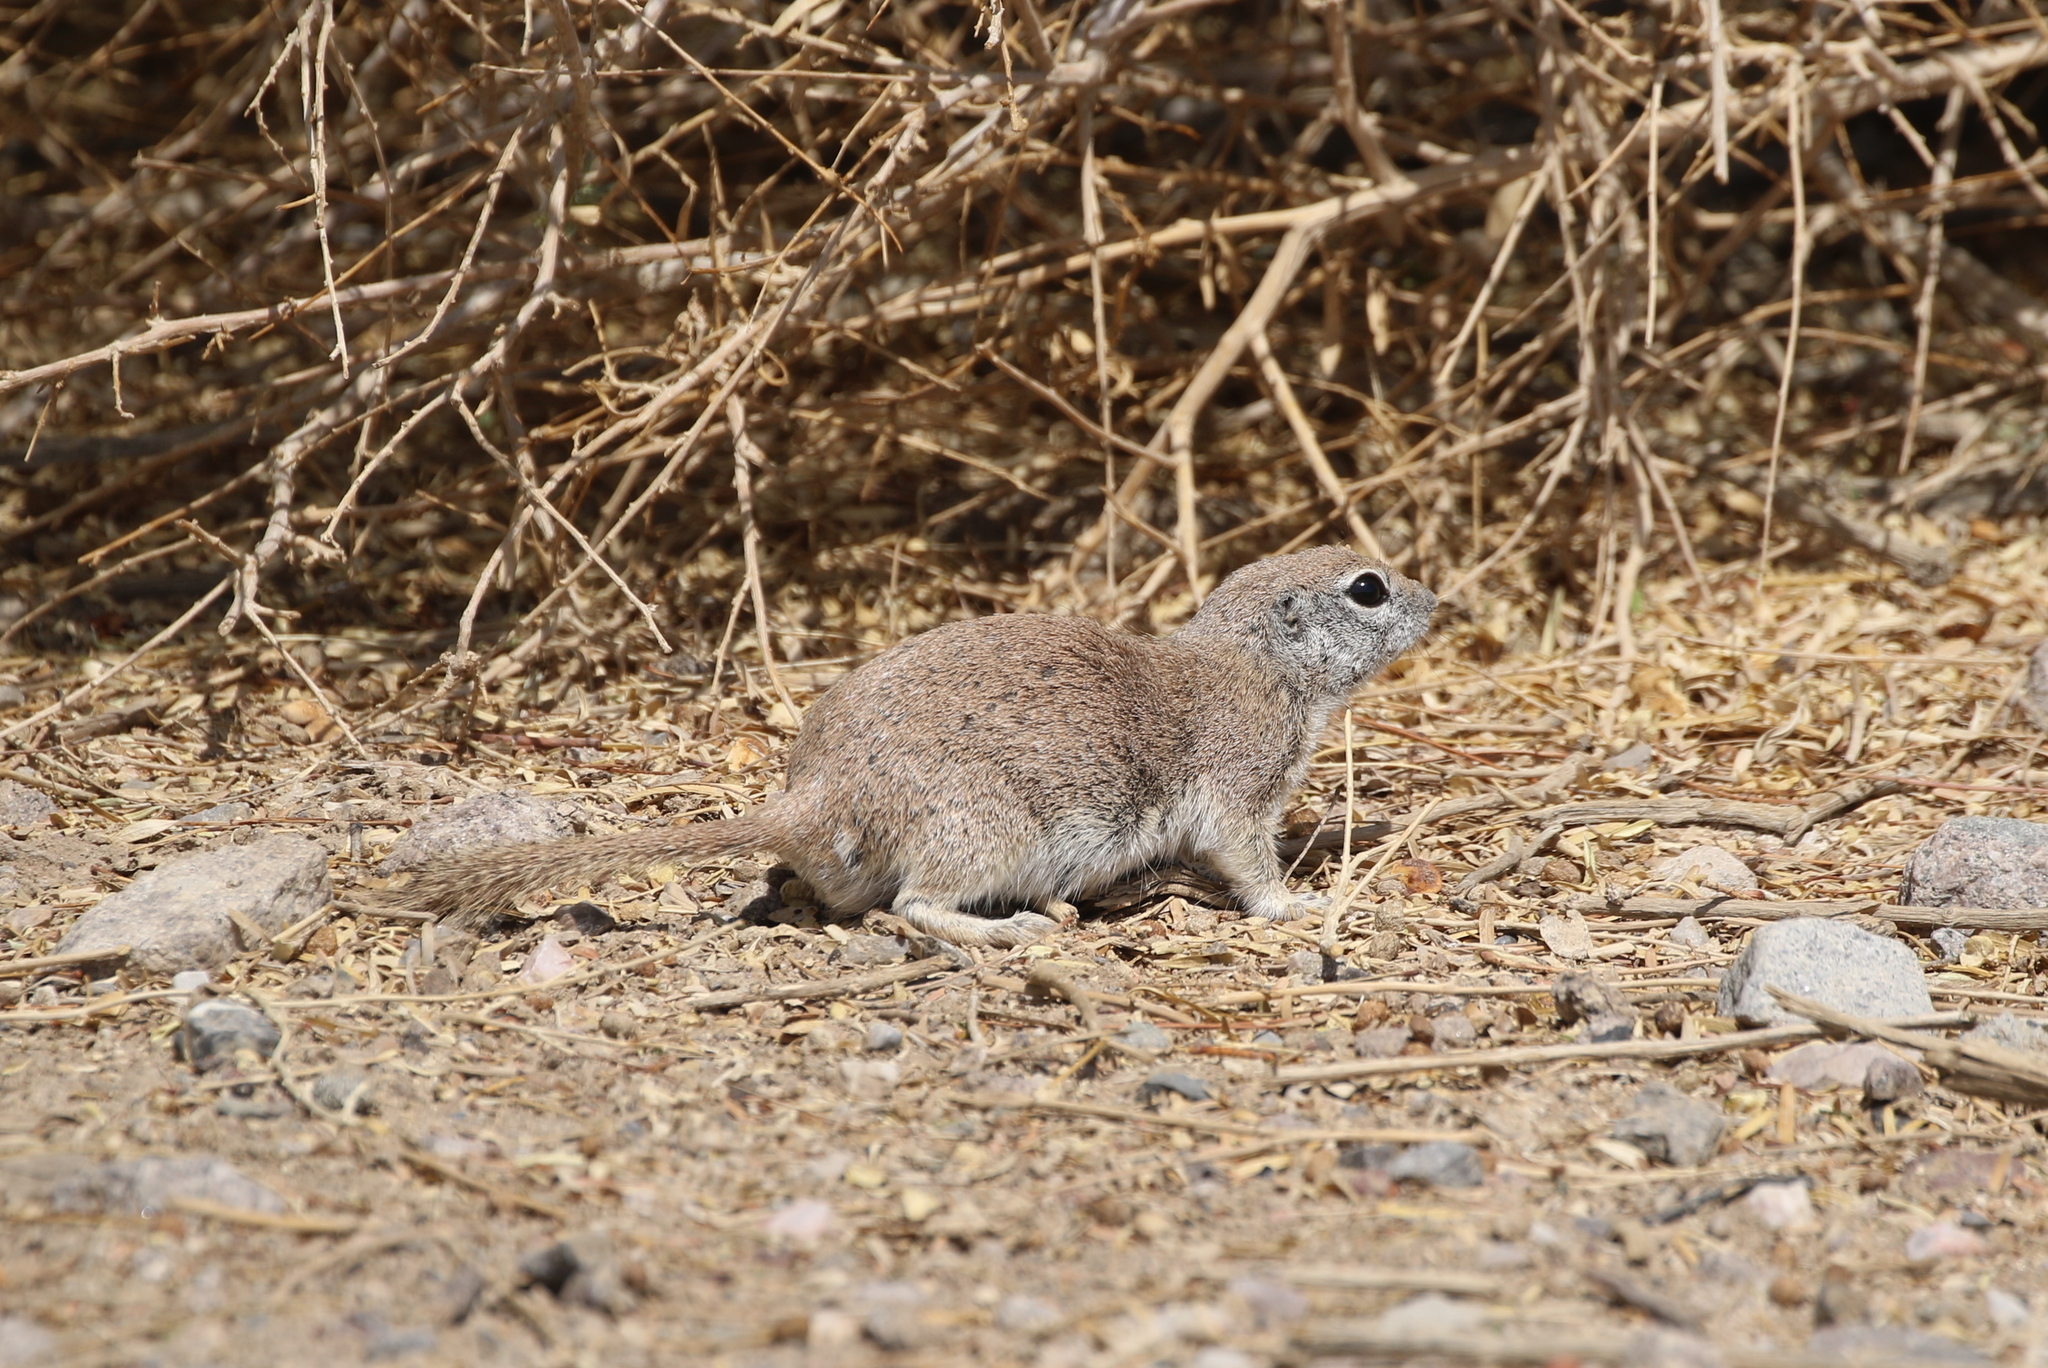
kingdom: Animalia
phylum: Chordata
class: Mammalia
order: Rodentia
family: Sciuridae
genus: Xerospermophilus
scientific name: Xerospermophilus tereticaudus
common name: Round-tailed ground squirrel
